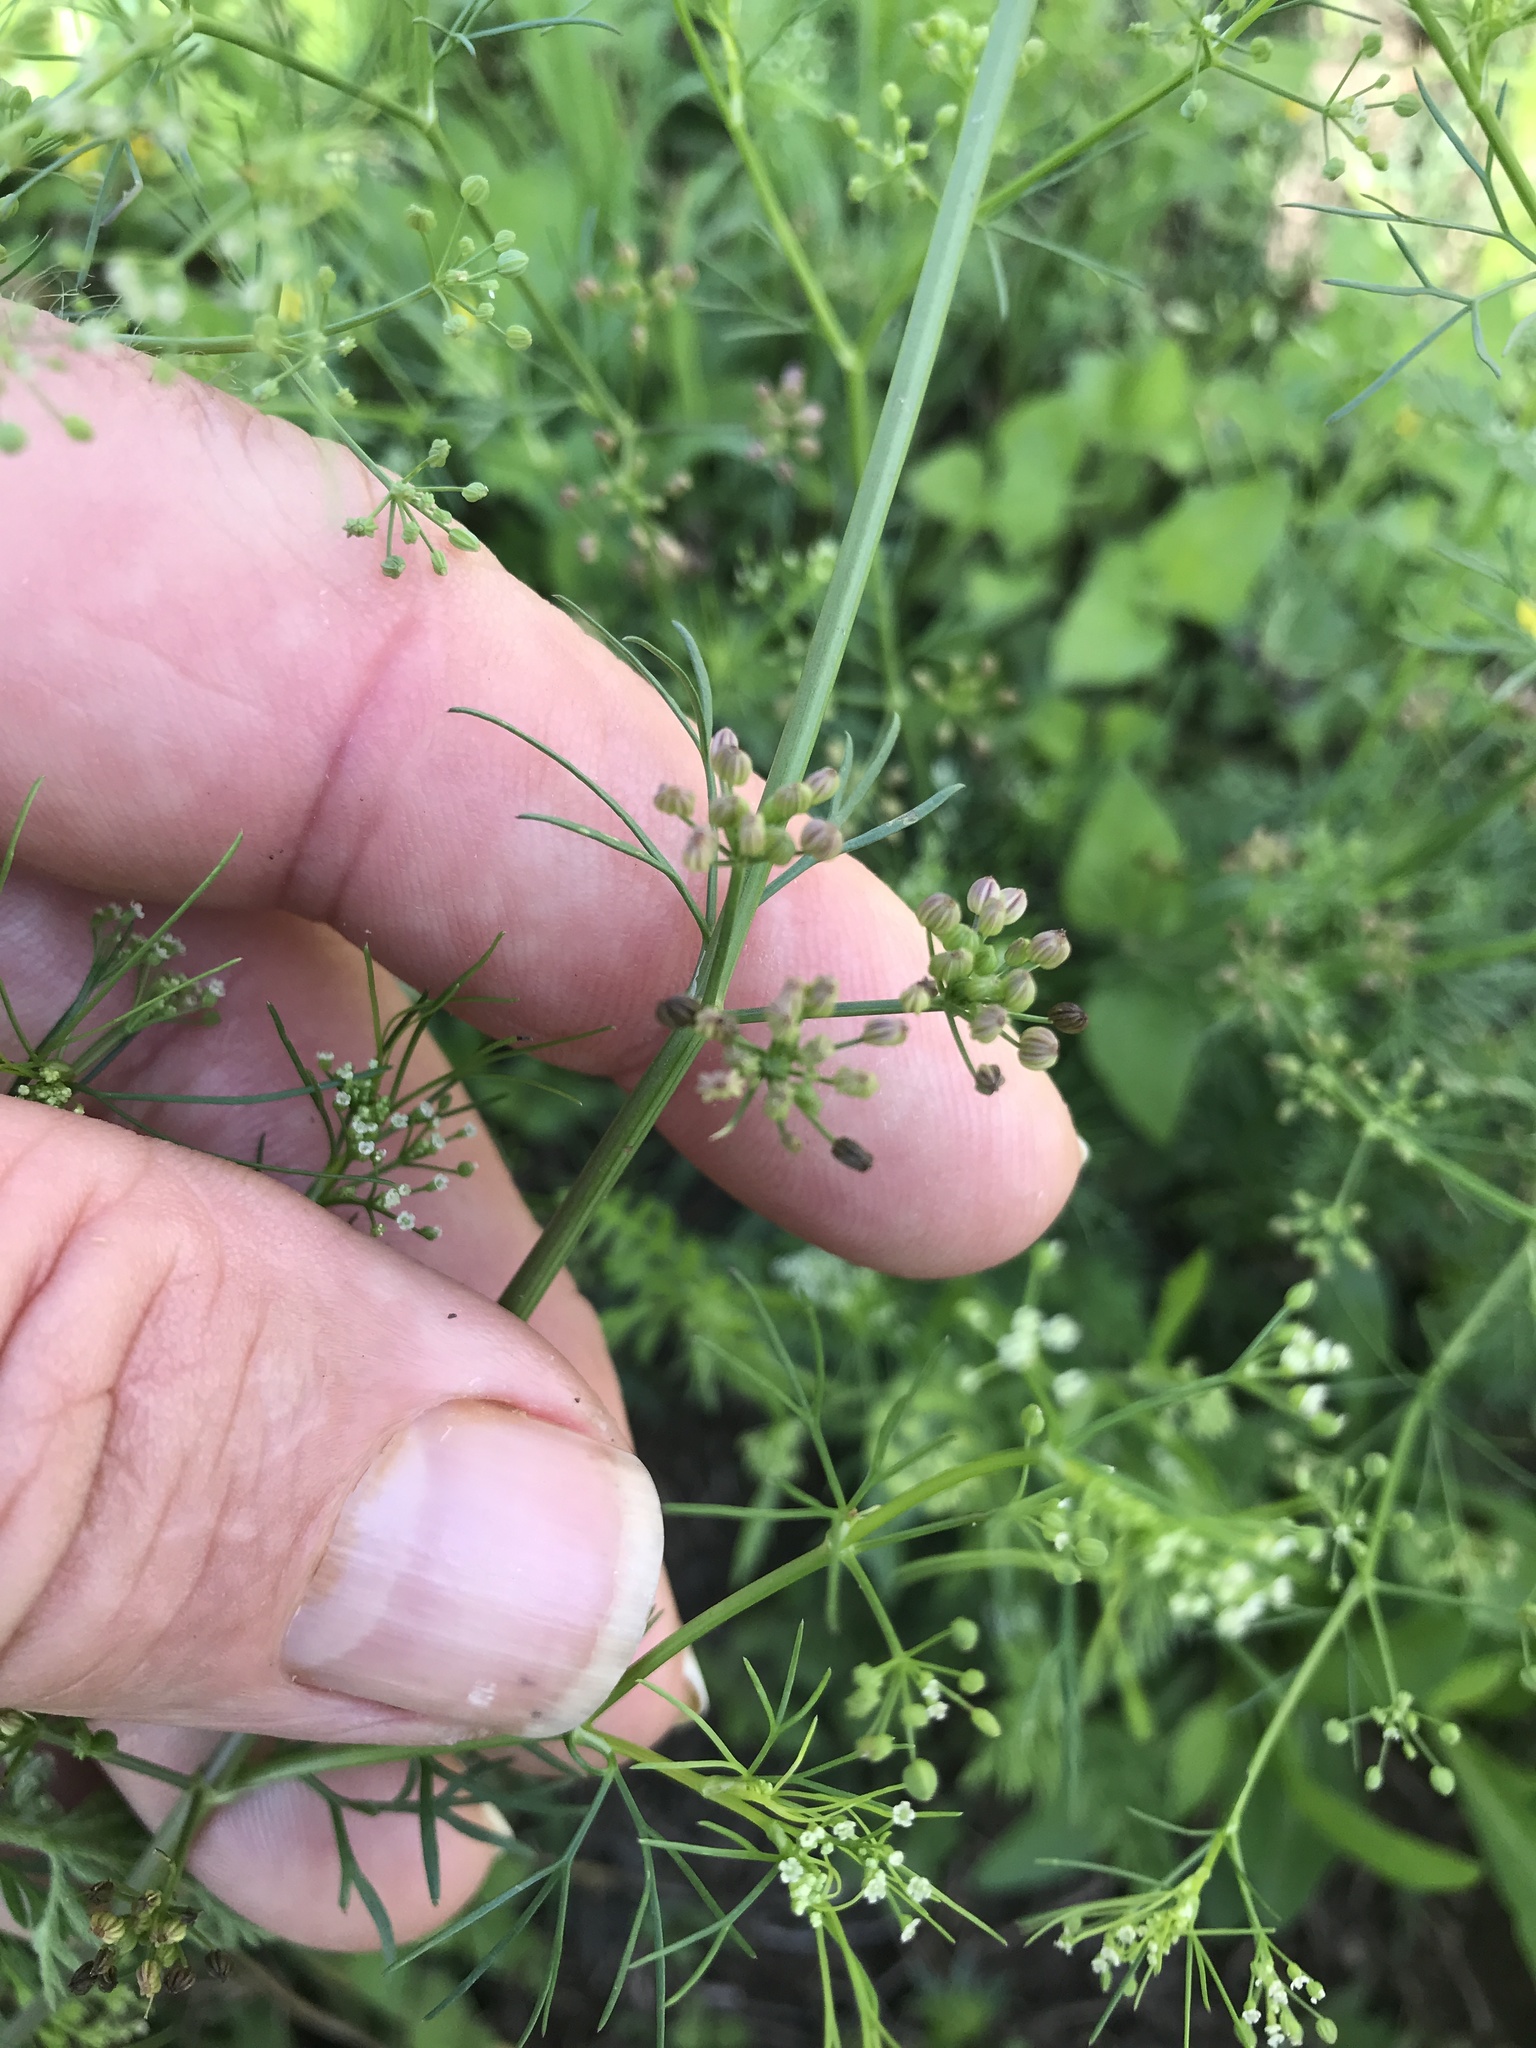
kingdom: Plantae
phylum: Tracheophyta
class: Magnoliopsida
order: Apiales
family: Apiaceae
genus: Cyclospermum
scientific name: Cyclospermum leptophyllum
